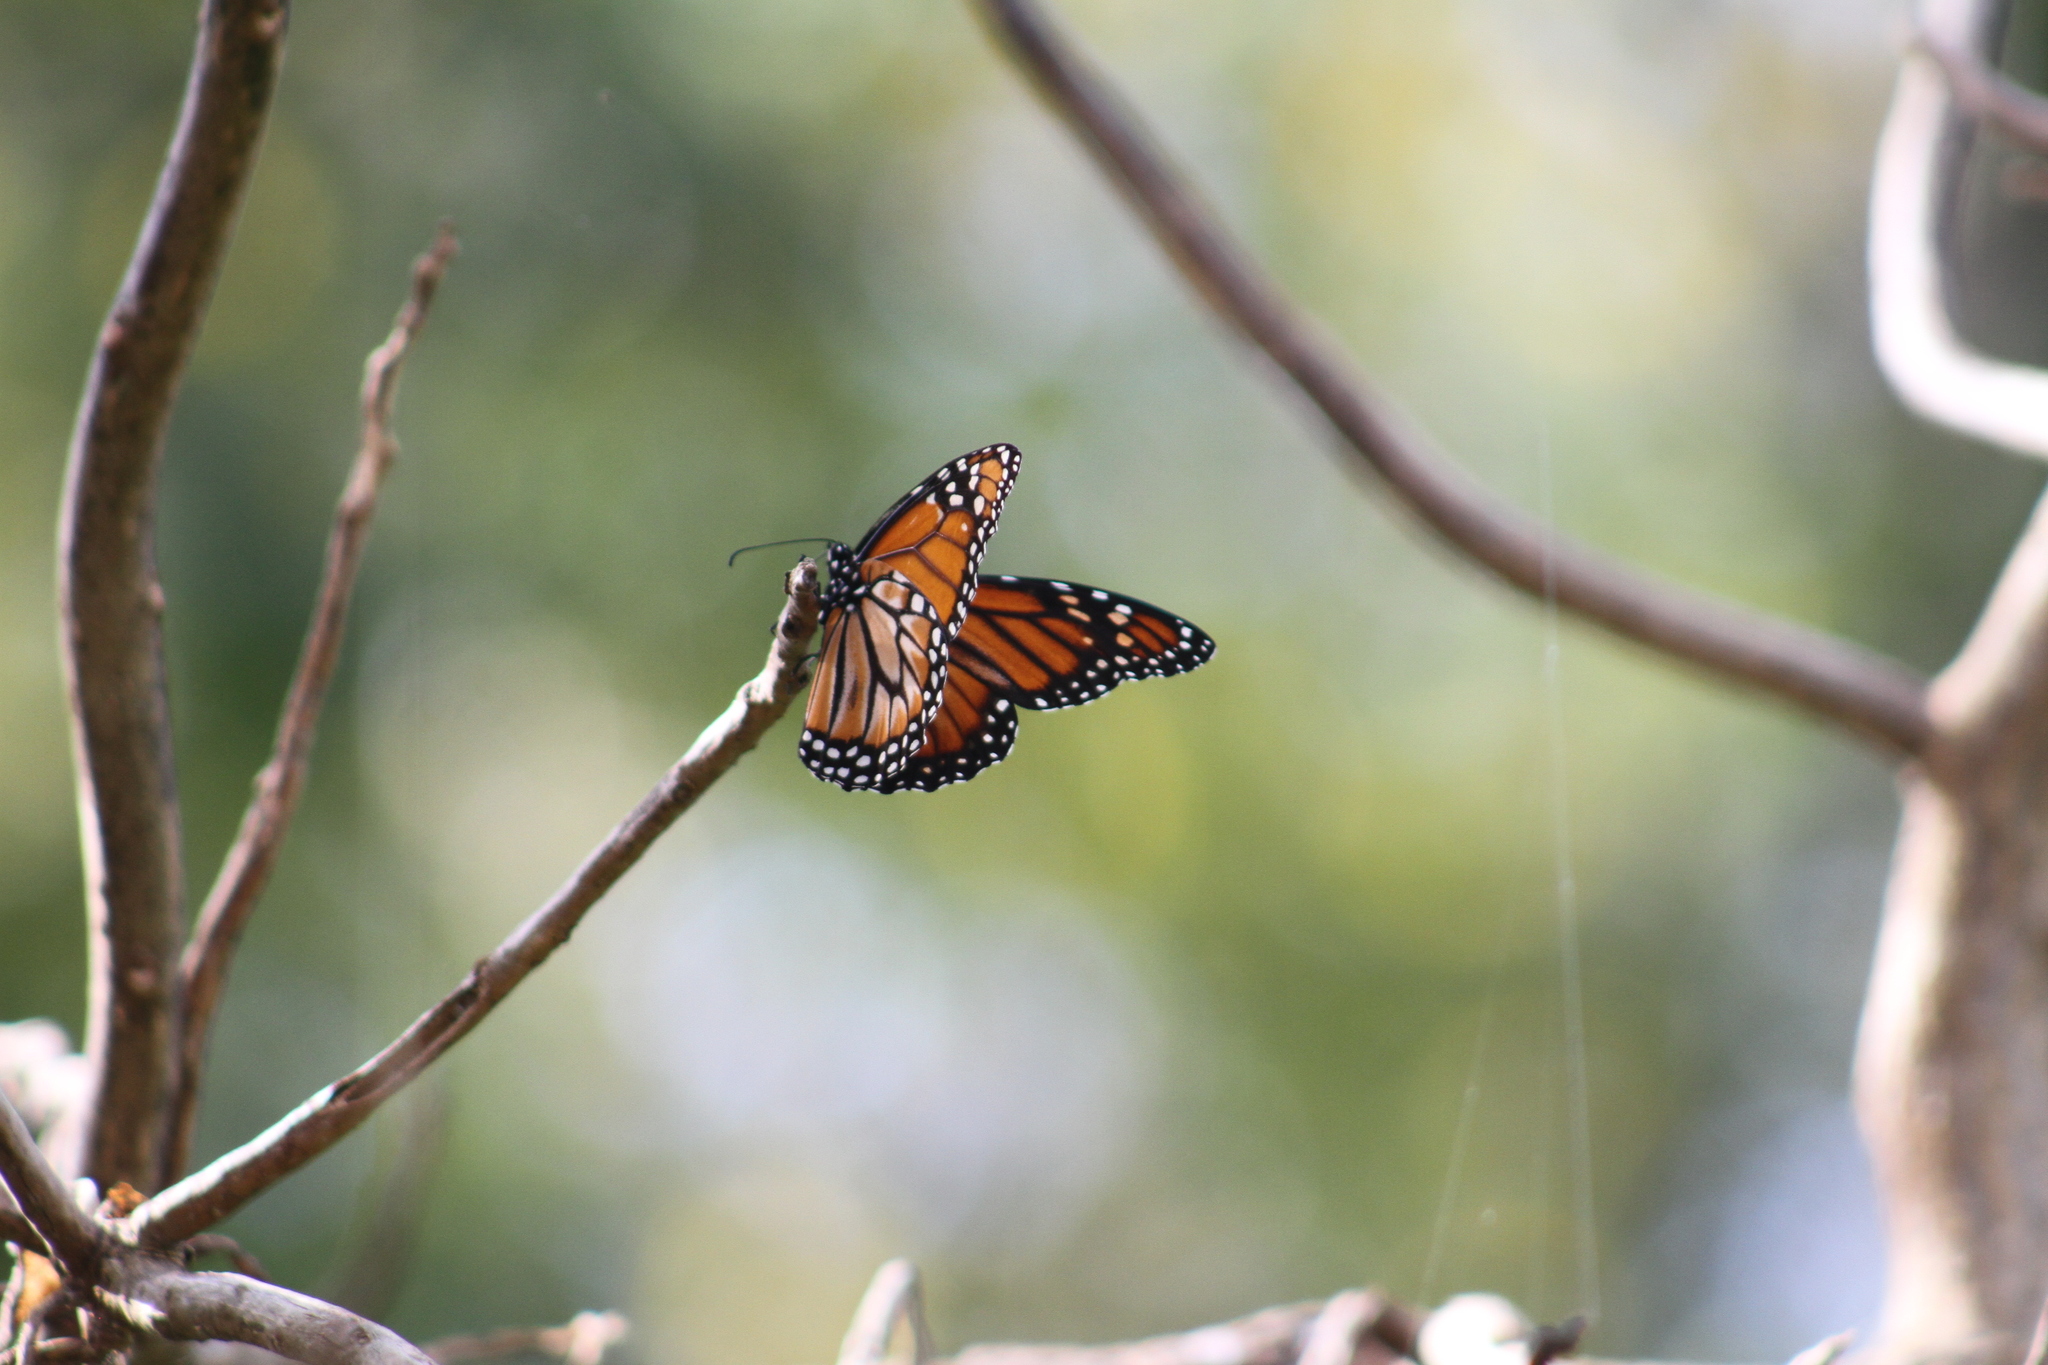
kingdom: Animalia
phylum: Arthropoda
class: Insecta
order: Lepidoptera
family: Nymphalidae
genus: Danaus
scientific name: Danaus erippus
